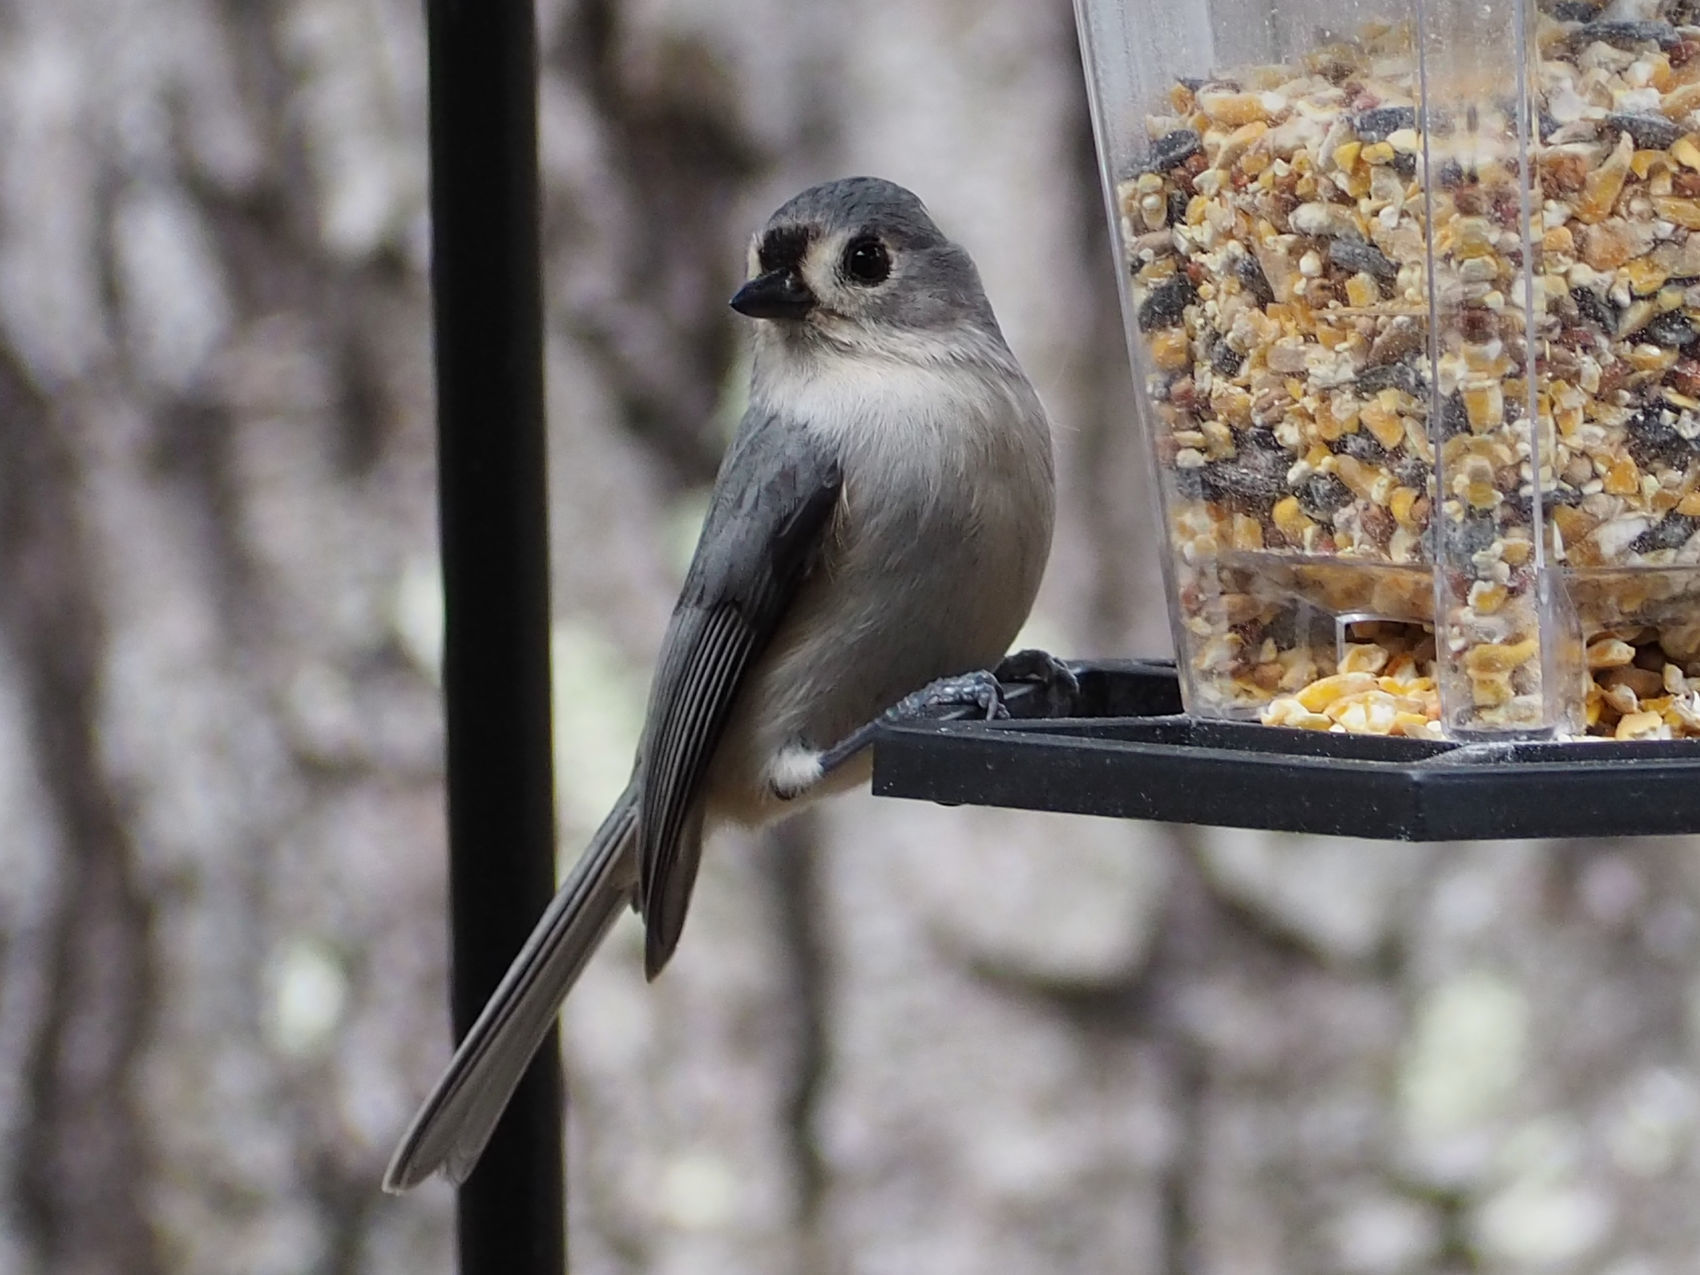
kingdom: Animalia
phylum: Chordata
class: Aves
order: Passeriformes
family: Paridae
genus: Baeolophus
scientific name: Baeolophus bicolor
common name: Tufted titmouse
